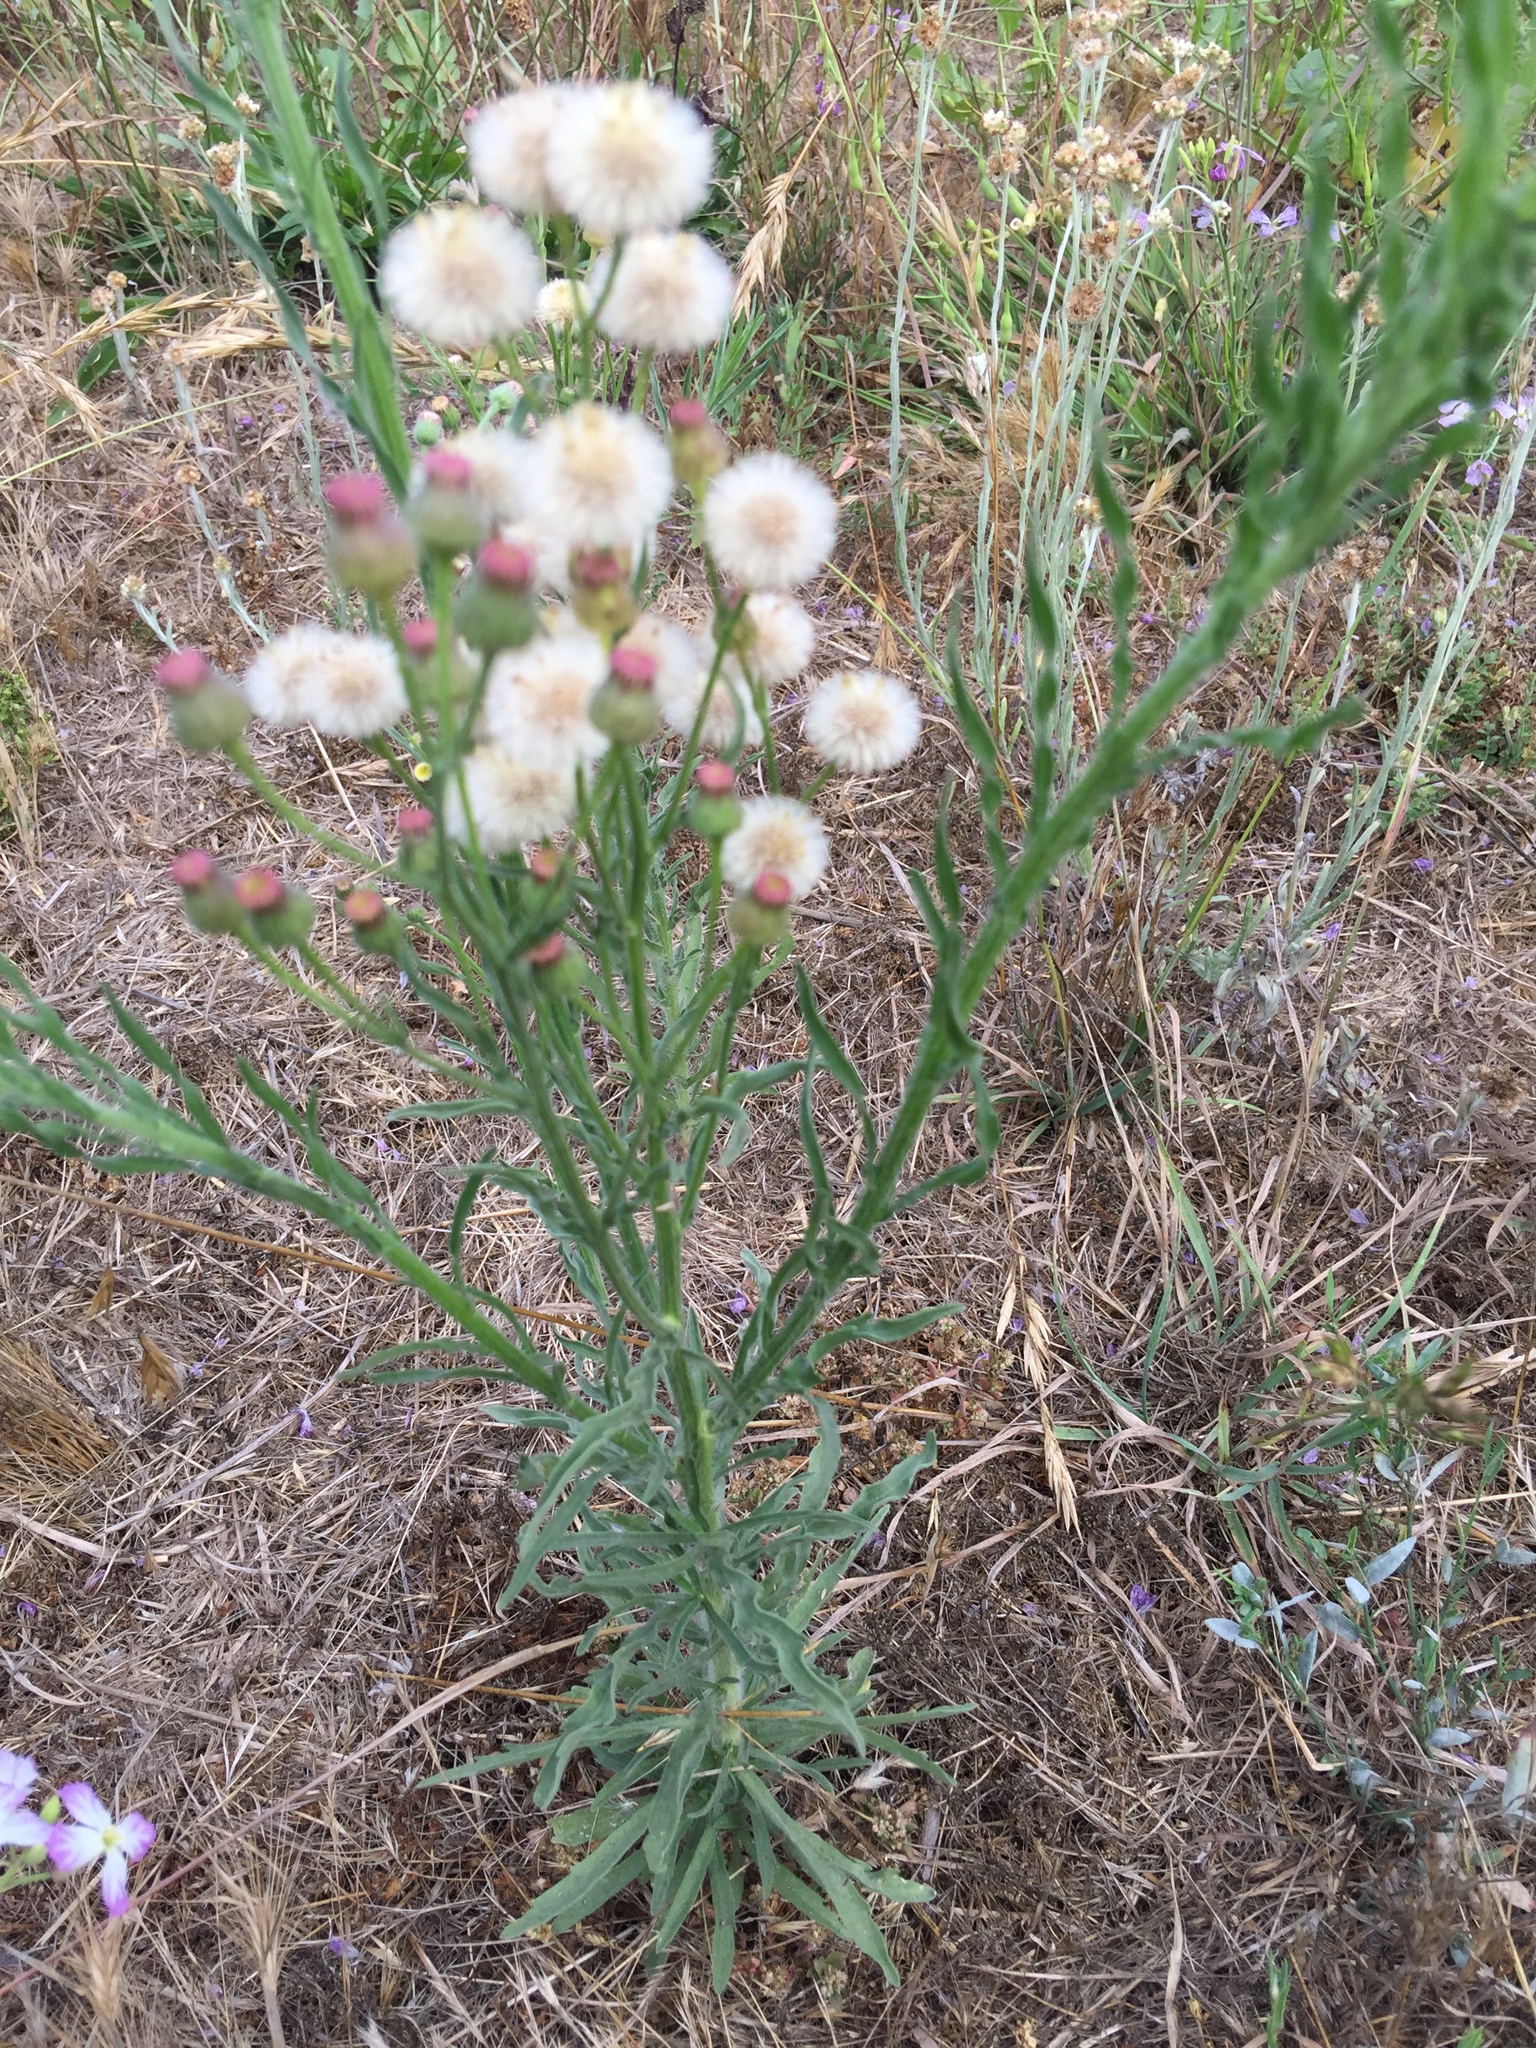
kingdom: Plantae
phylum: Tracheophyta
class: Magnoliopsida
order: Asterales
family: Asteraceae
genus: Erigeron
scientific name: Erigeron bonariensis
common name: Argentine fleabane
